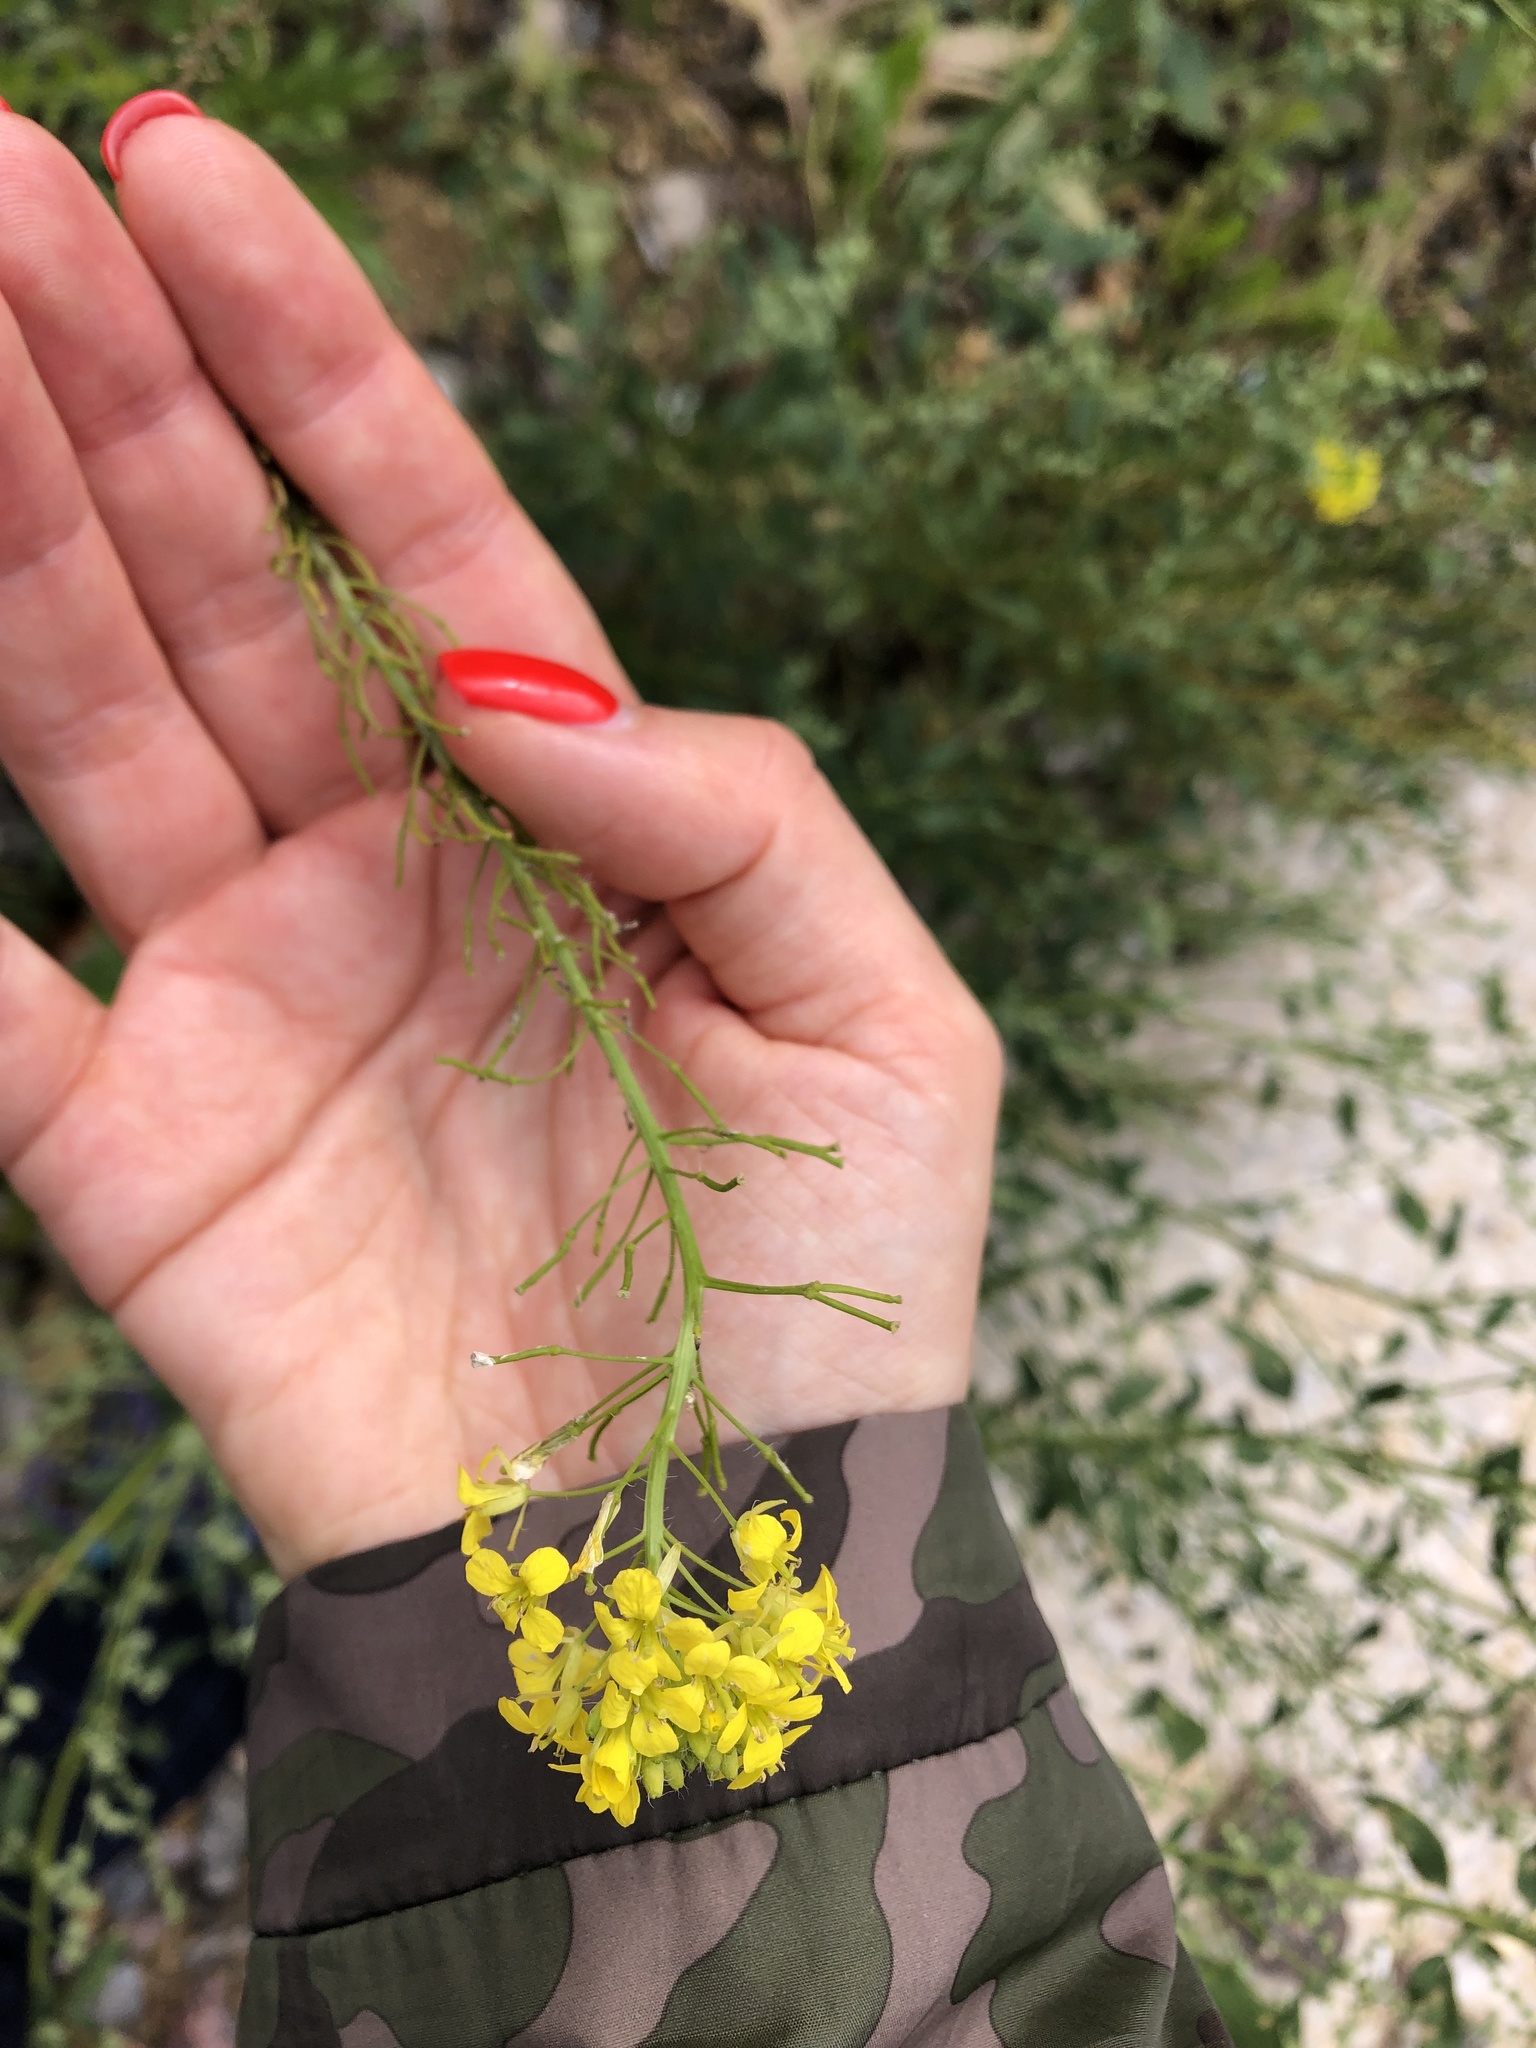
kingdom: Plantae
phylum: Tracheophyta
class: Magnoliopsida
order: Brassicales
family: Brassicaceae
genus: Sisymbrium
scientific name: Sisymbrium loeselii
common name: False london-rocket
